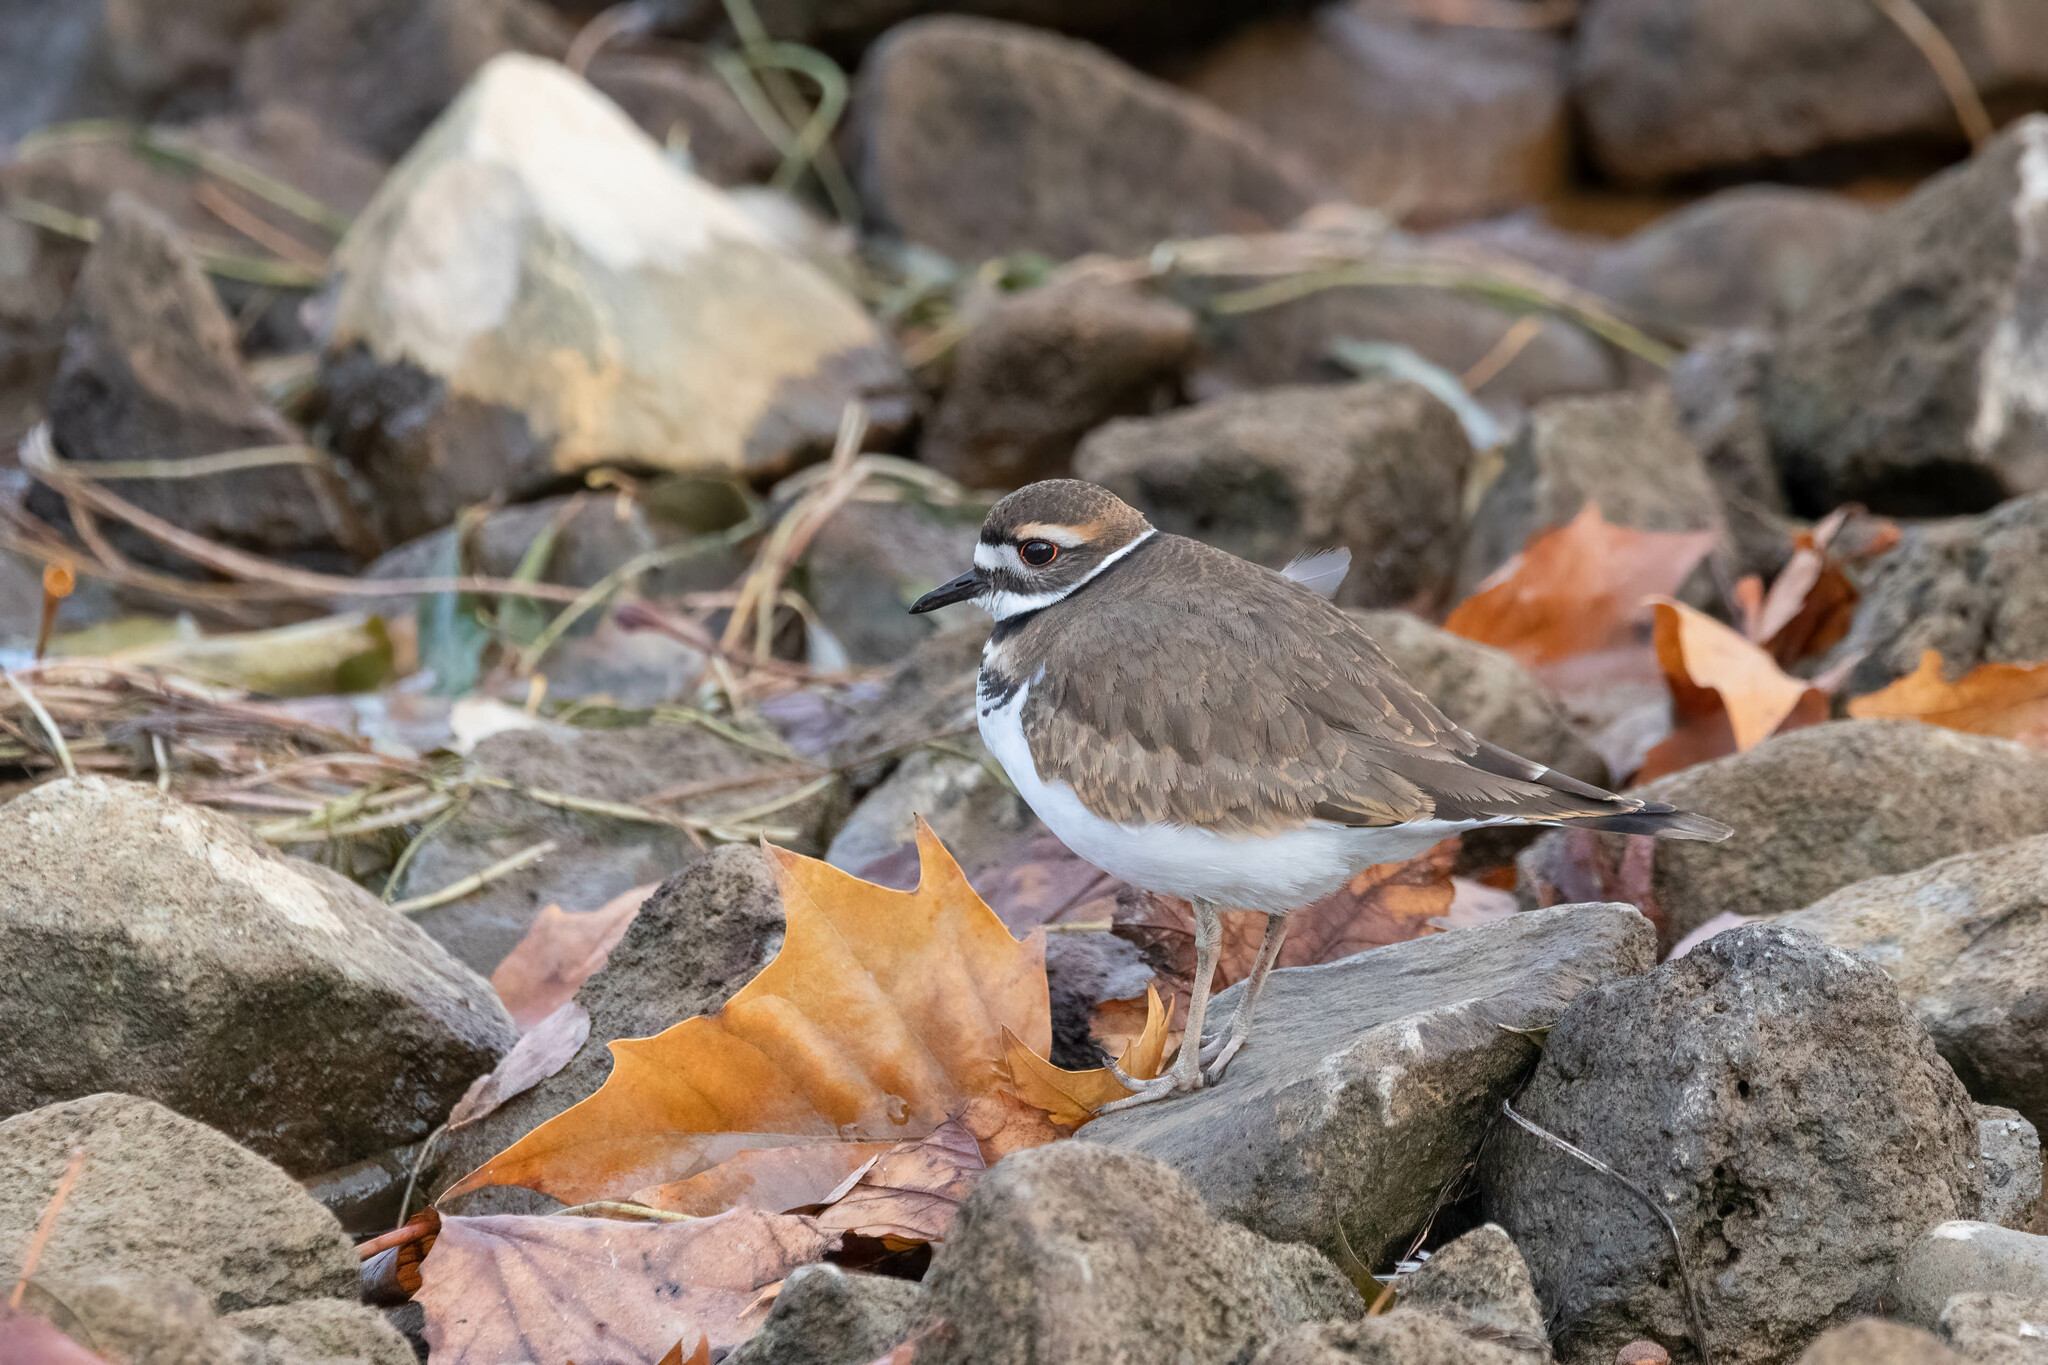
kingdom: Animalia
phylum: Chordata
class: Aves
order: Charadriiformes
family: Charadriidae
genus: Charadrius
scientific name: Charadrius vociferus
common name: Killdeer
